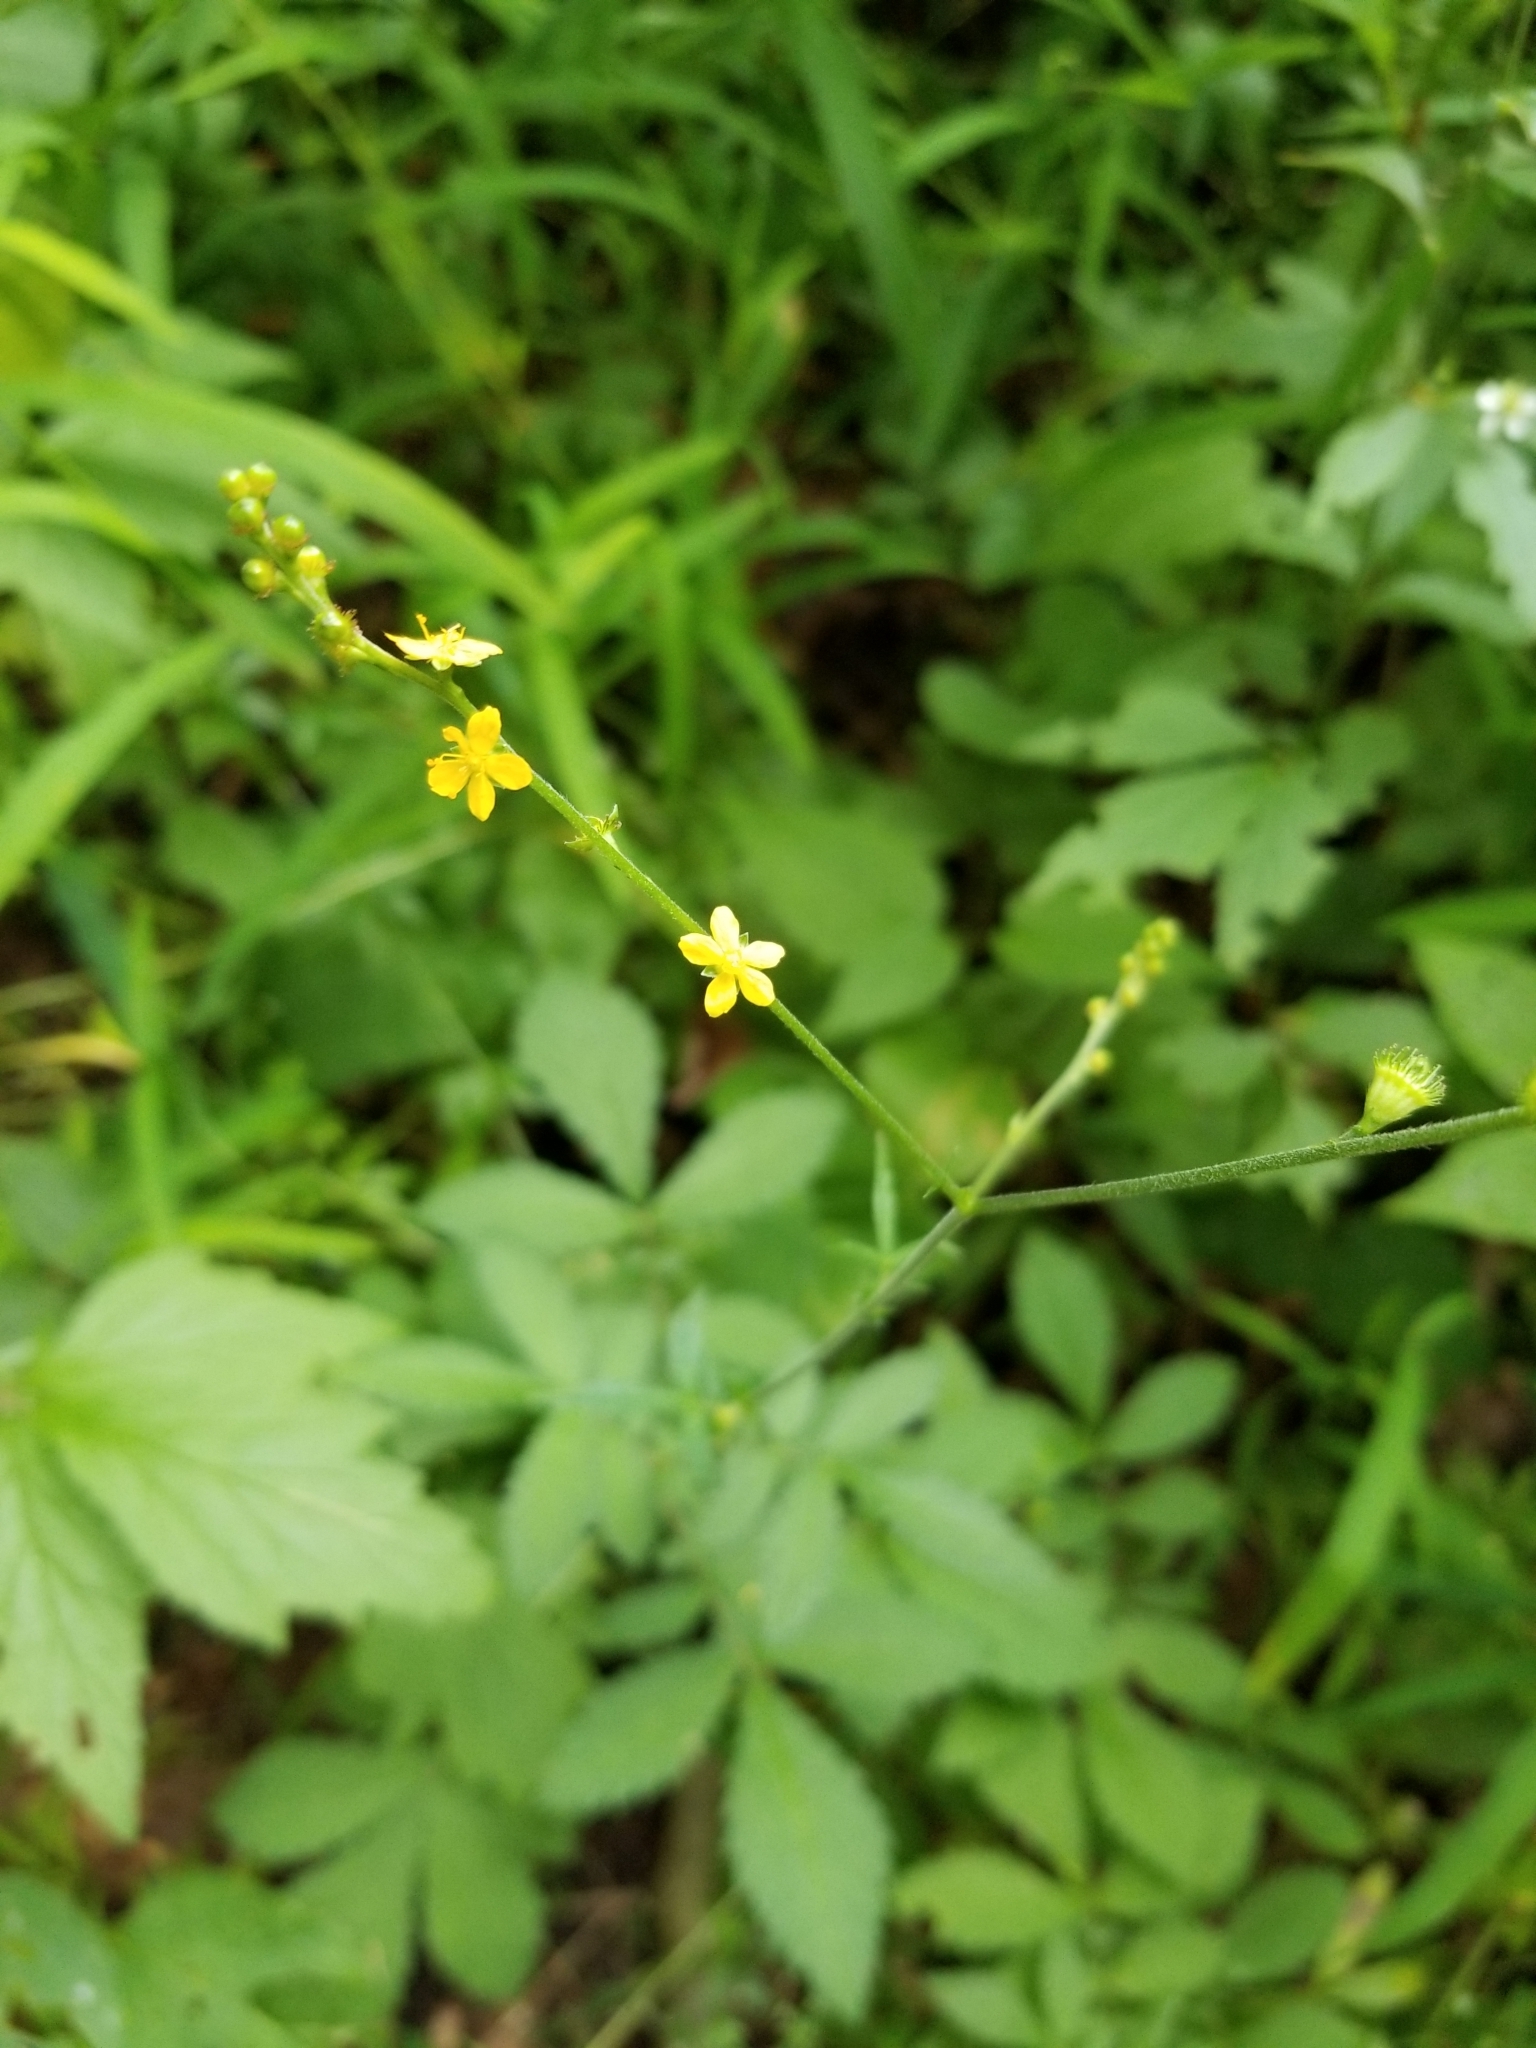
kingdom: Plantae
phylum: Tracheophyta
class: Magnoliopsida
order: Rosales
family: Rosaceae
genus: Agrimonia
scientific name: Agrimonia gryposepala
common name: Common agrimony
